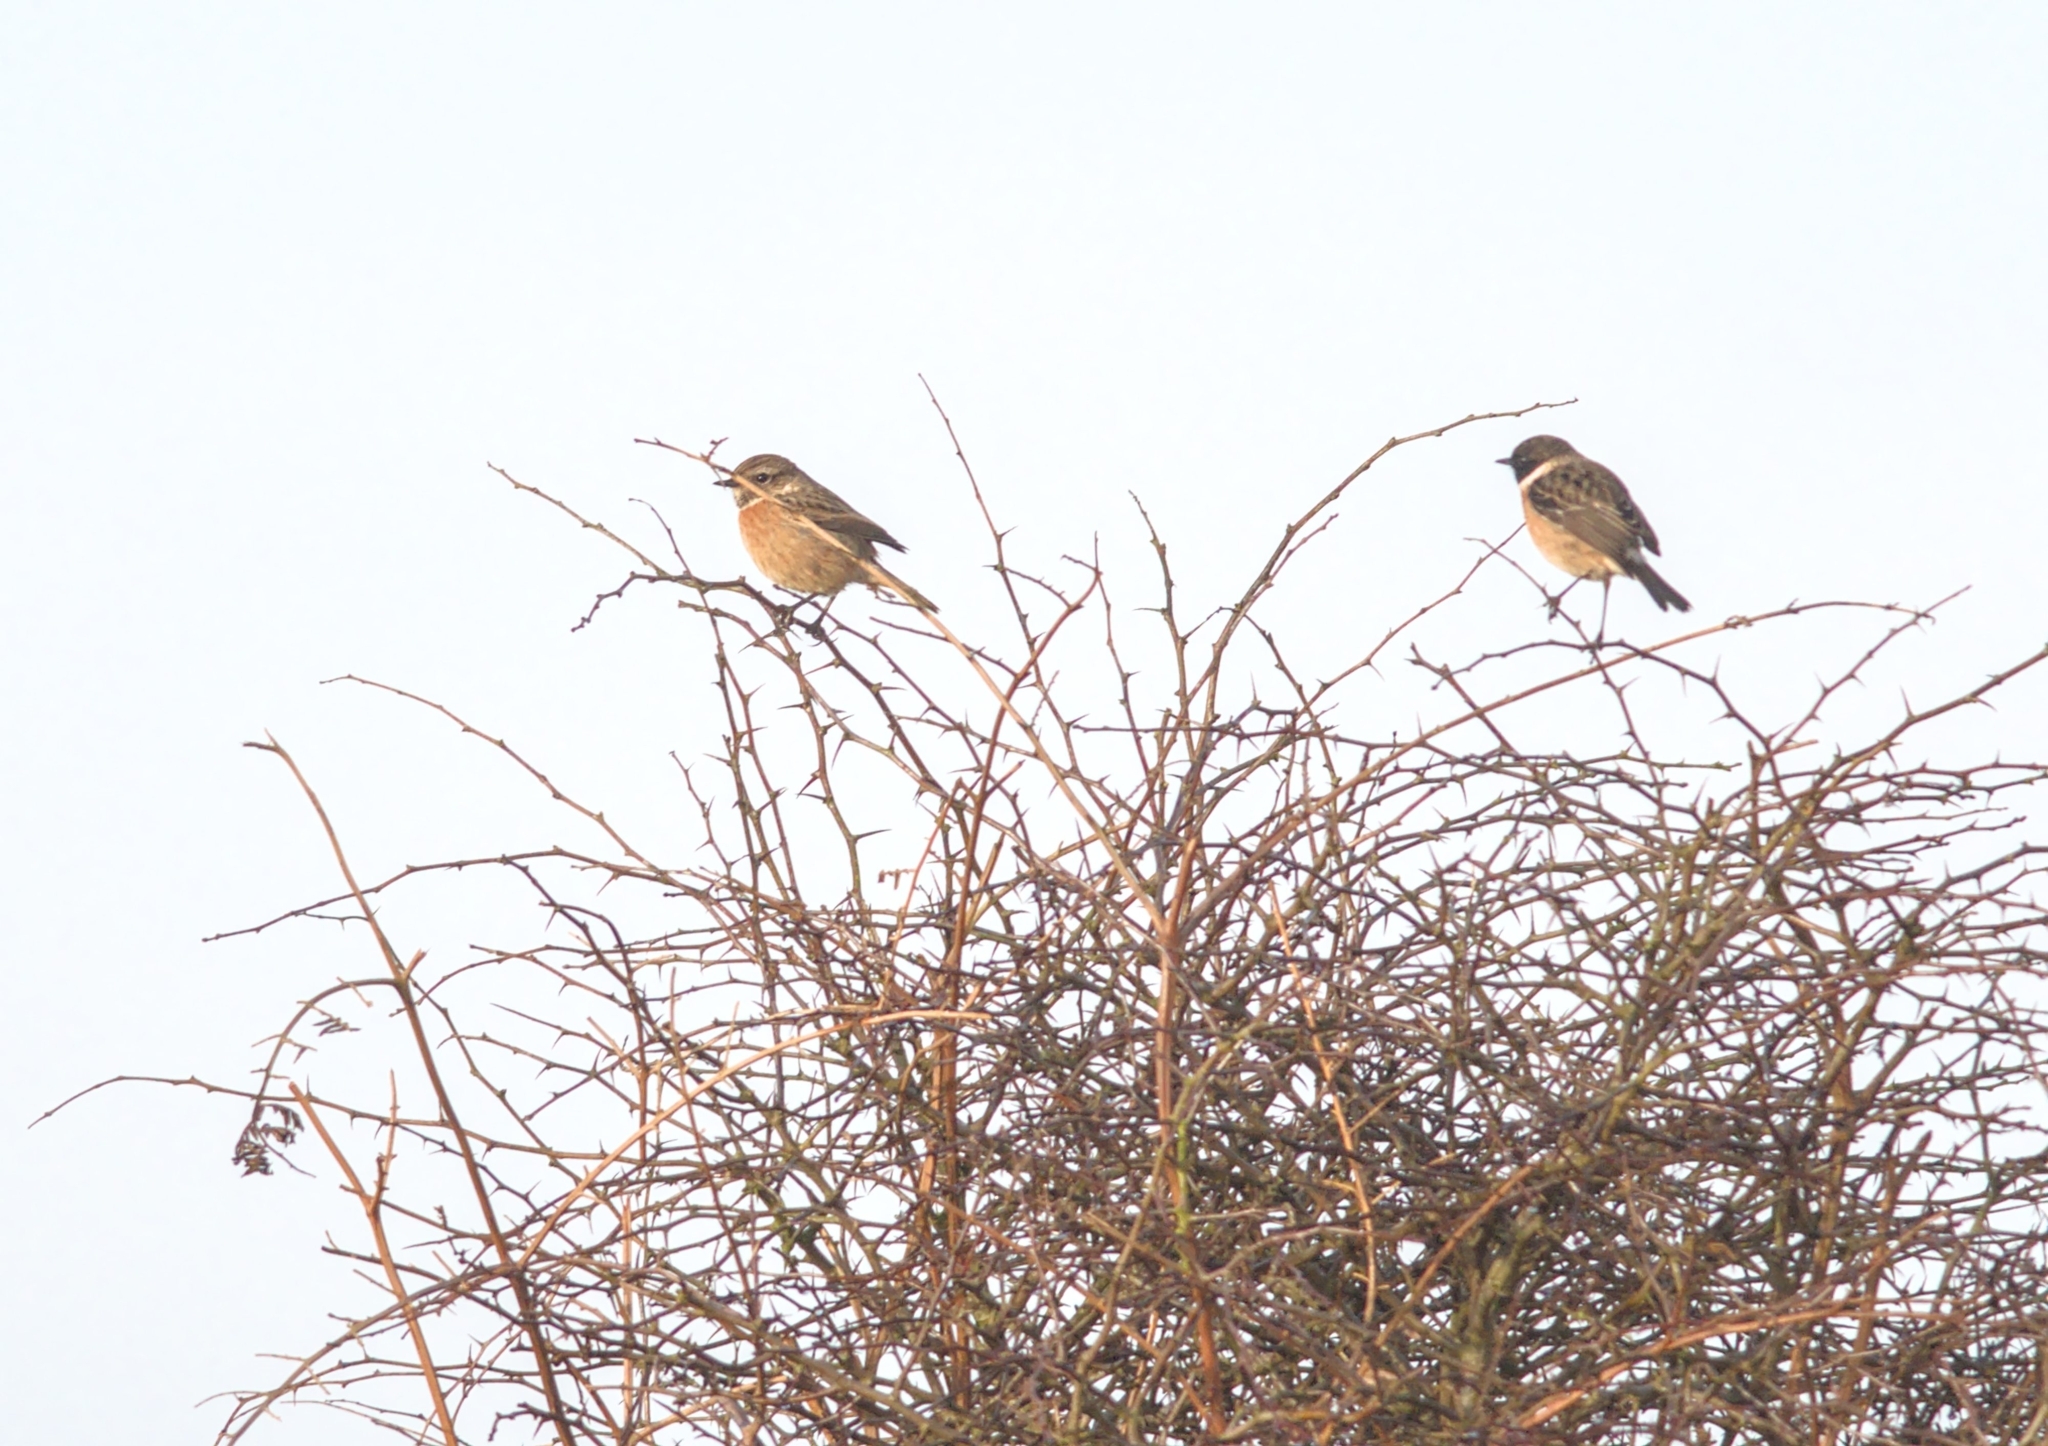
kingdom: Animalia
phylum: Chordata
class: Aves
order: Passeriformes
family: Muscicapidae
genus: Saxicola
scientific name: Saxicola rubicola
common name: European stonechat
